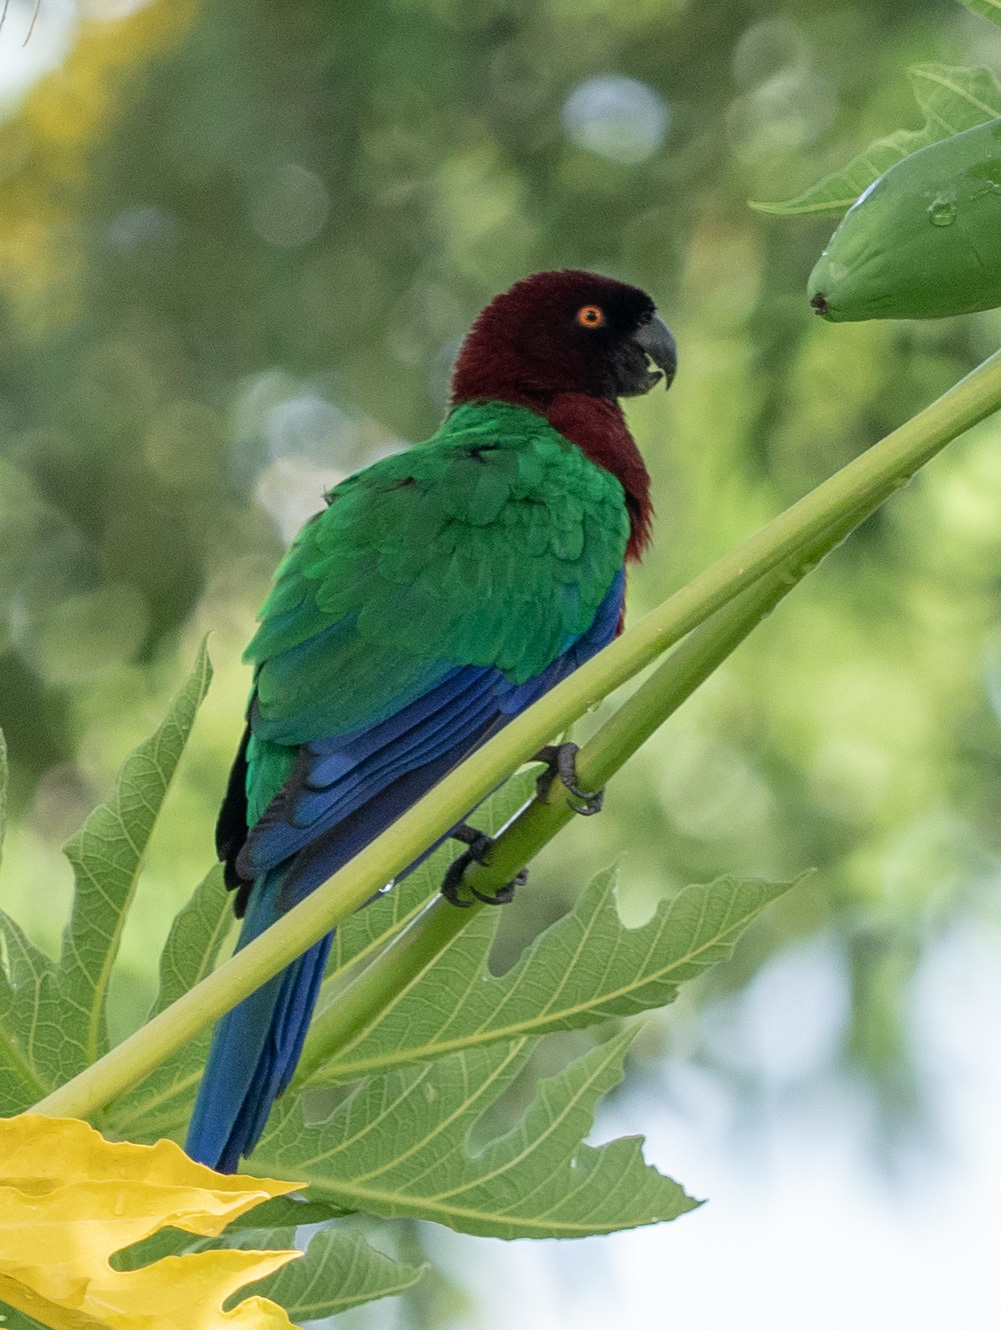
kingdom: Animalia
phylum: Chordata
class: Aves
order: Psittaciformes
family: Psittacidae
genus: Prosopeia
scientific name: Prosopeia tabuensis
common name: Maroon shining parrot
